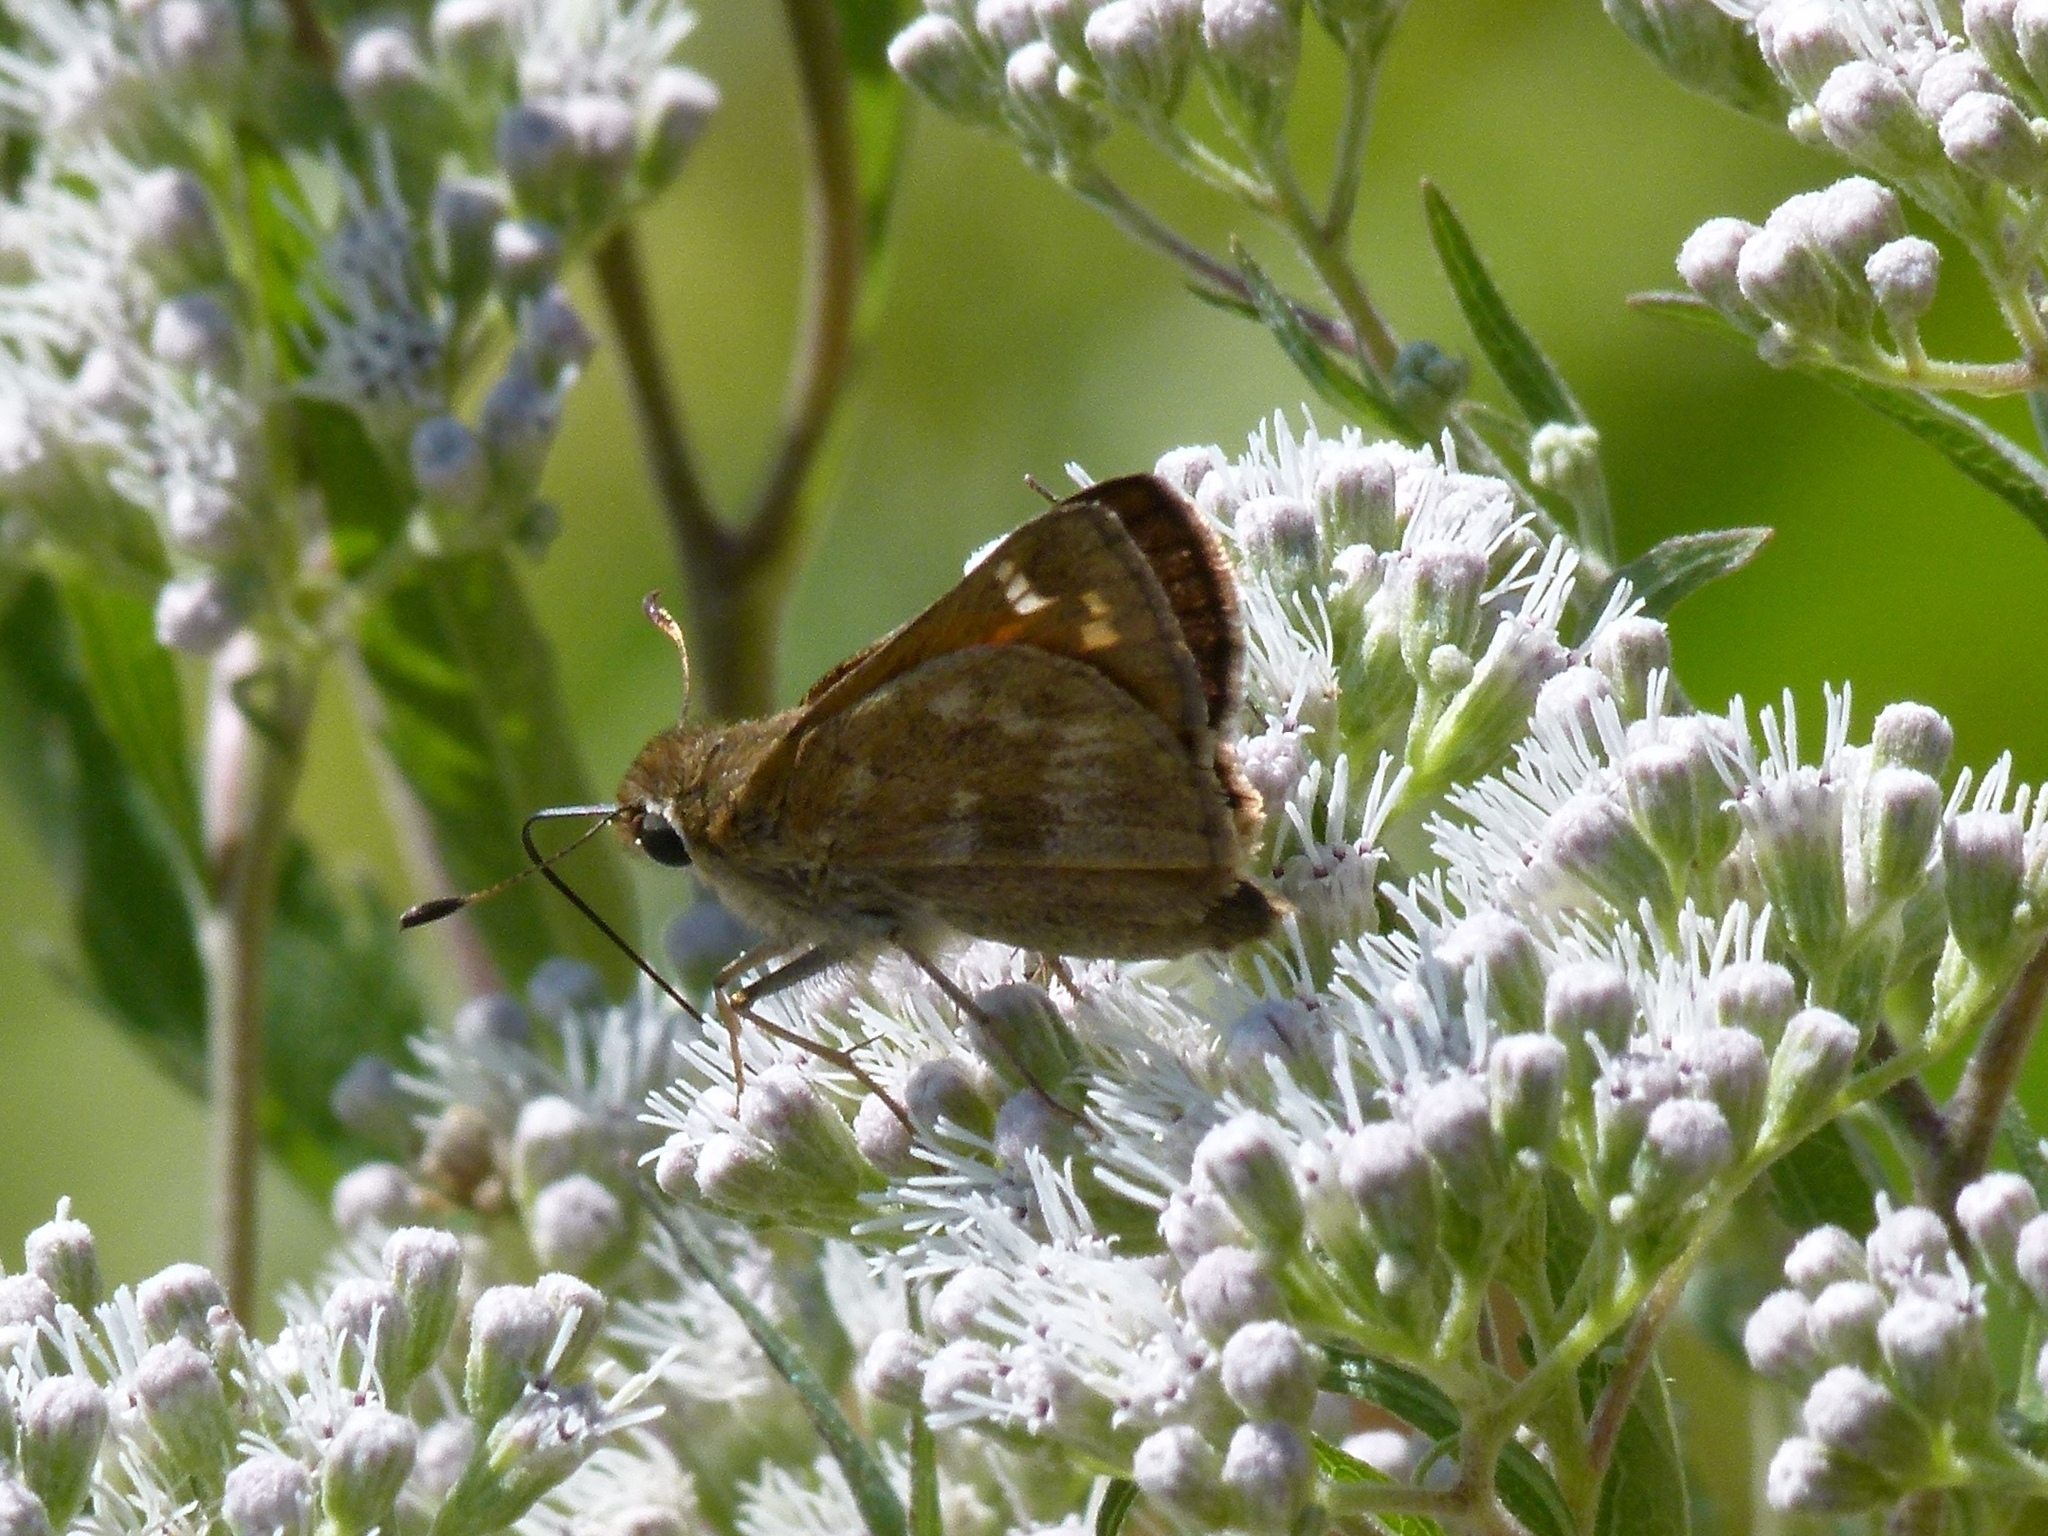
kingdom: Animalia
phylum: Arthropoda
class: Insecta
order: Lepidoptera
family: Hesperiidae
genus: Atalopedes
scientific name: Atalopedes
